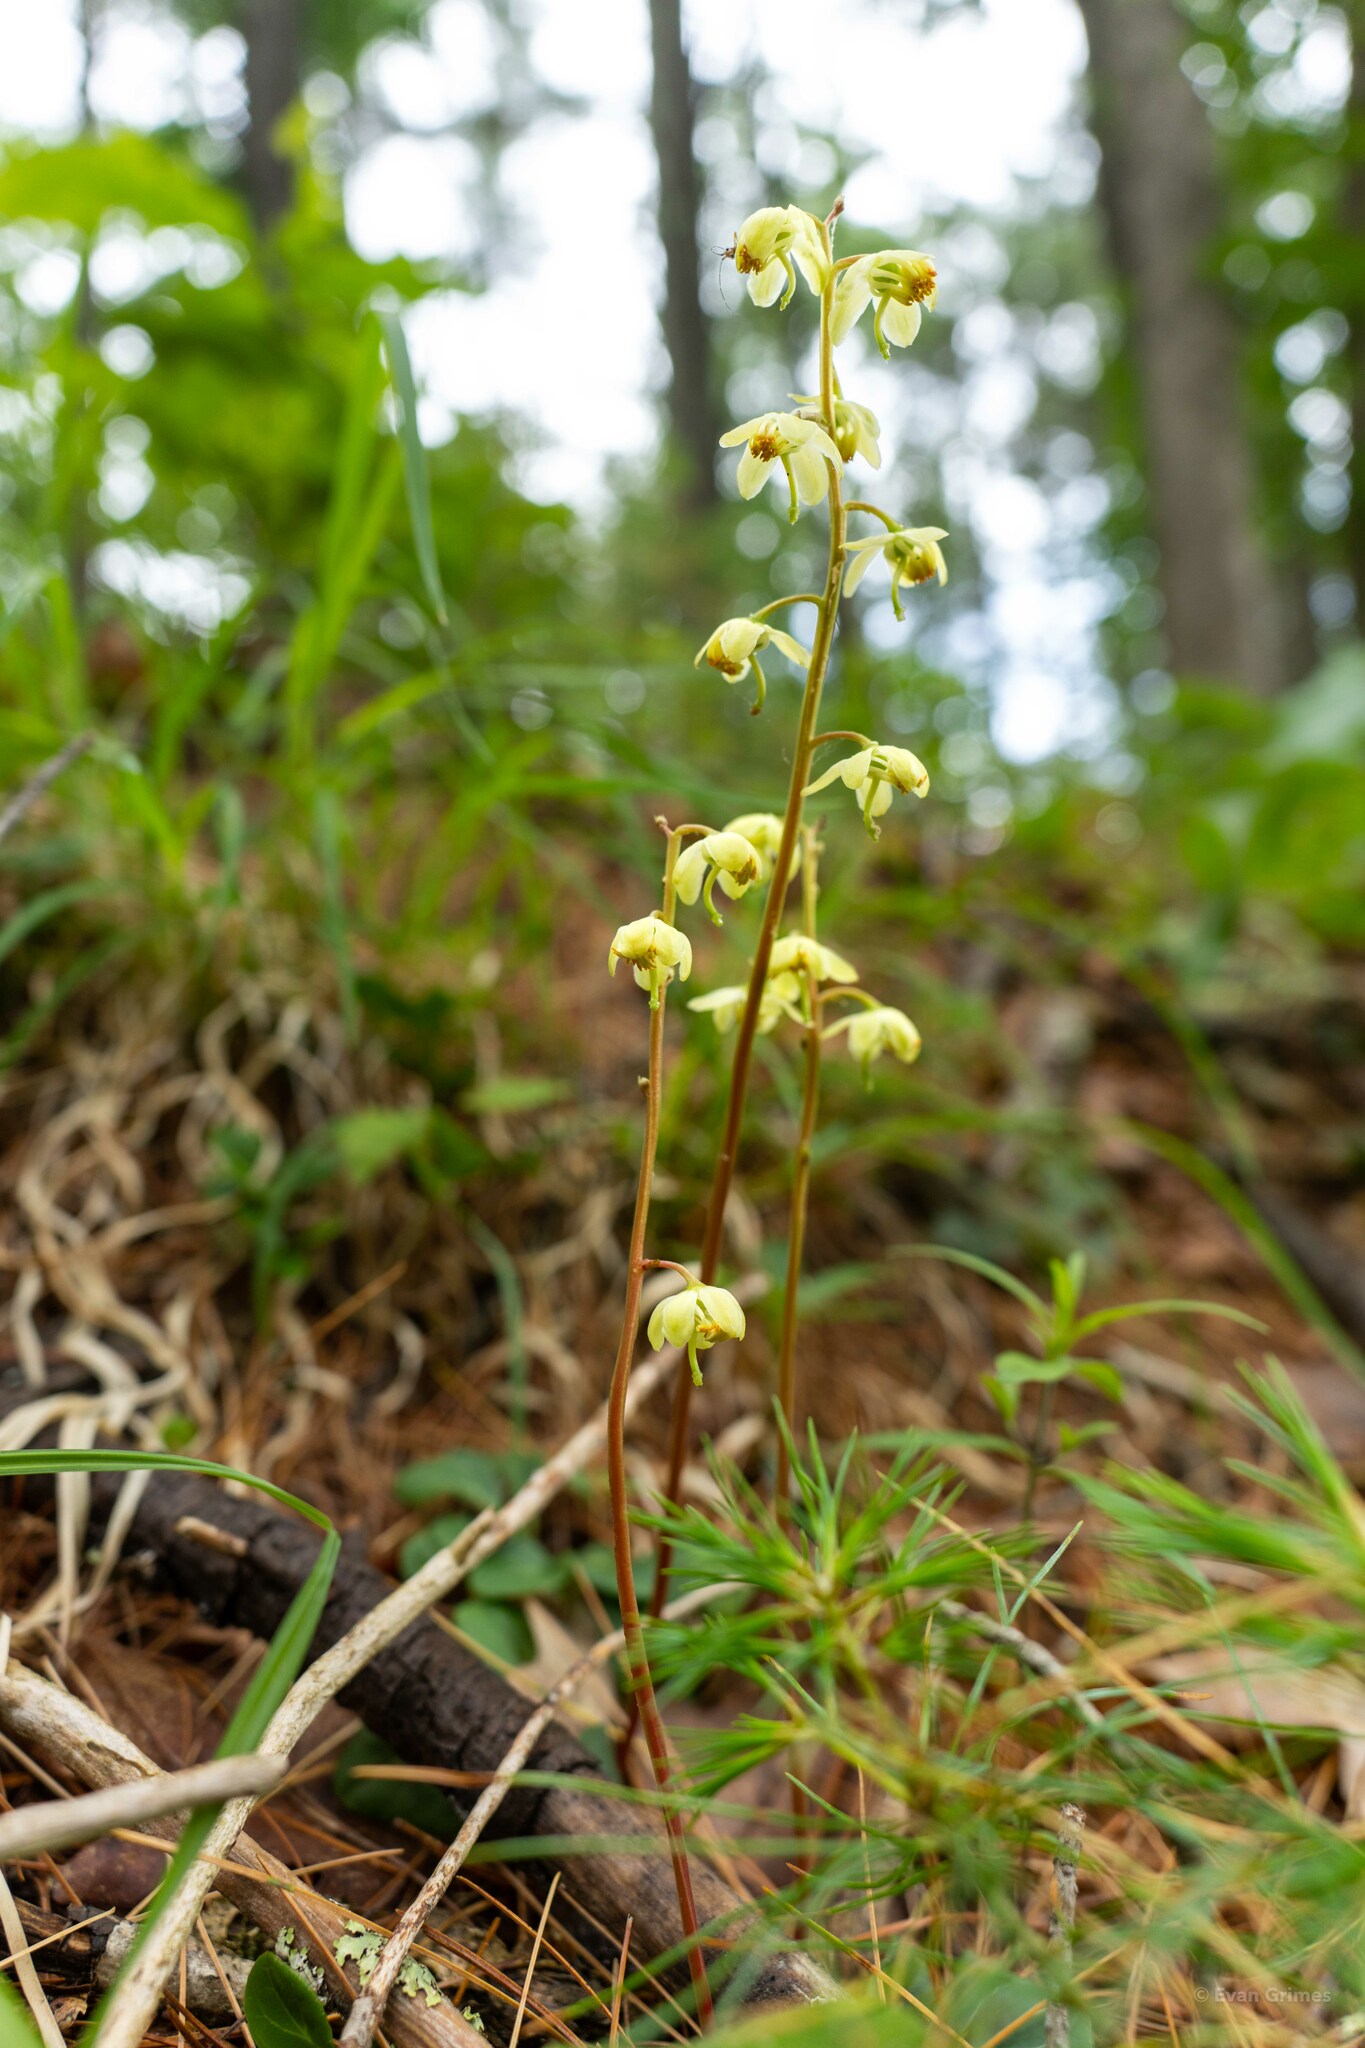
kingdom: Plantae
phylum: Tracheophyta
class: Magnoliopsida
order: Ericales
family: Ericaceae
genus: Pyrola
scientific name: Pyrola chlorantha
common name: Green wintergreen
